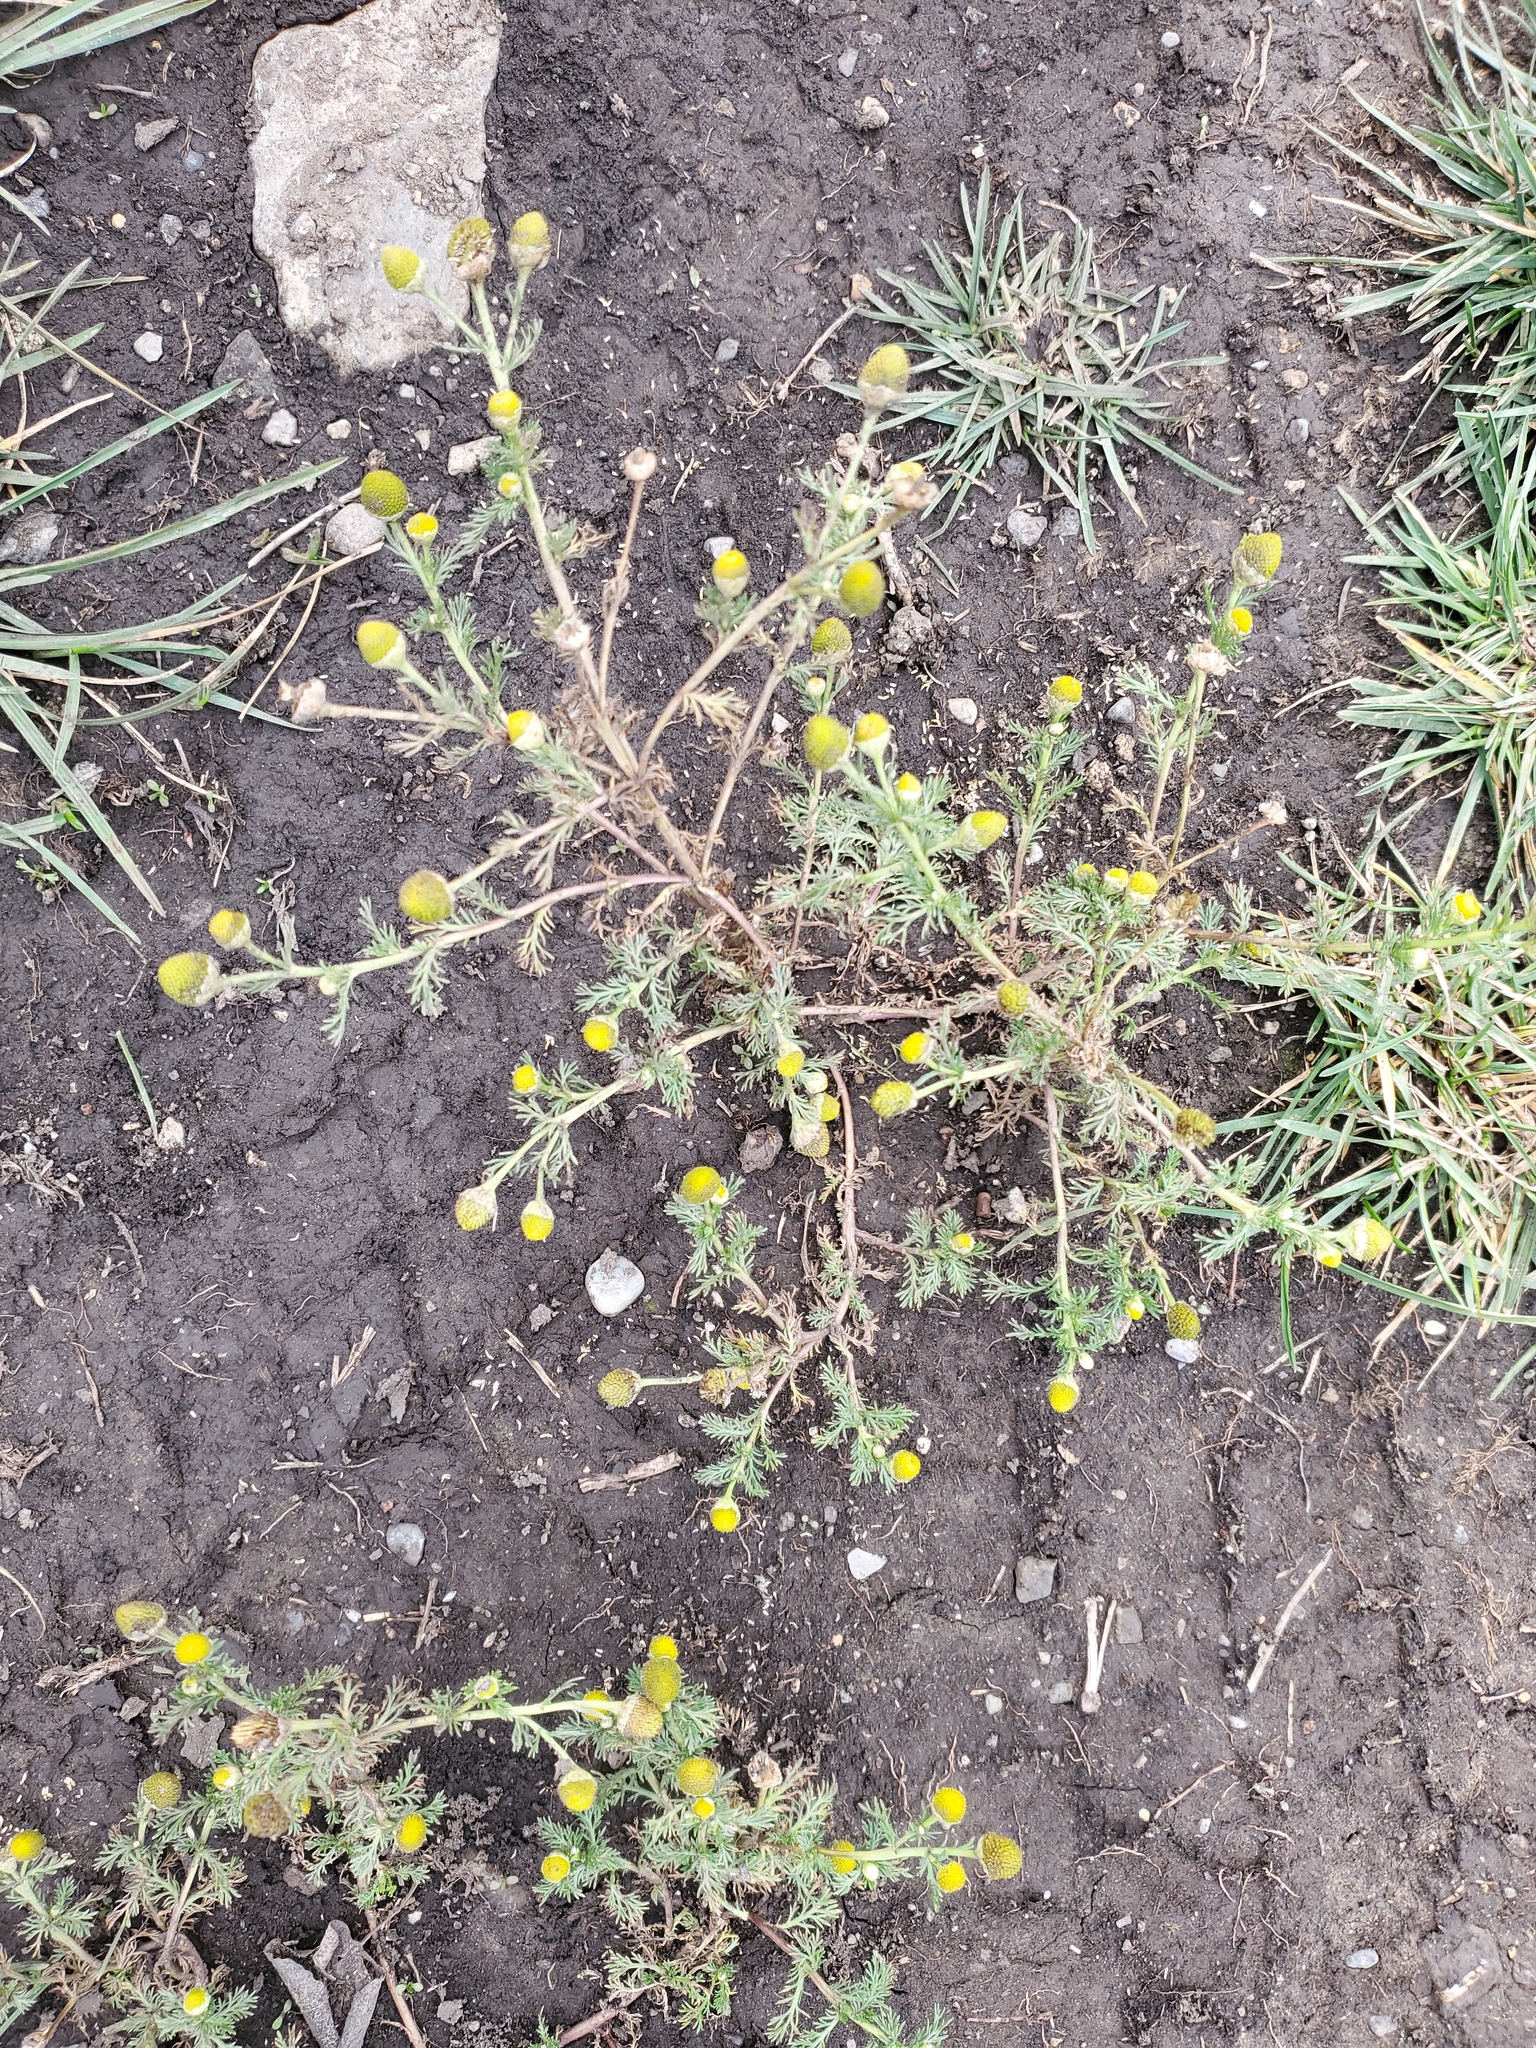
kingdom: Plantae
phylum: Tracheophyta
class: Magnoliopsida
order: Asterales
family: Asteraceae
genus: Matricaria
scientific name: Matricaria discoidea
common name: Disc mayweed
